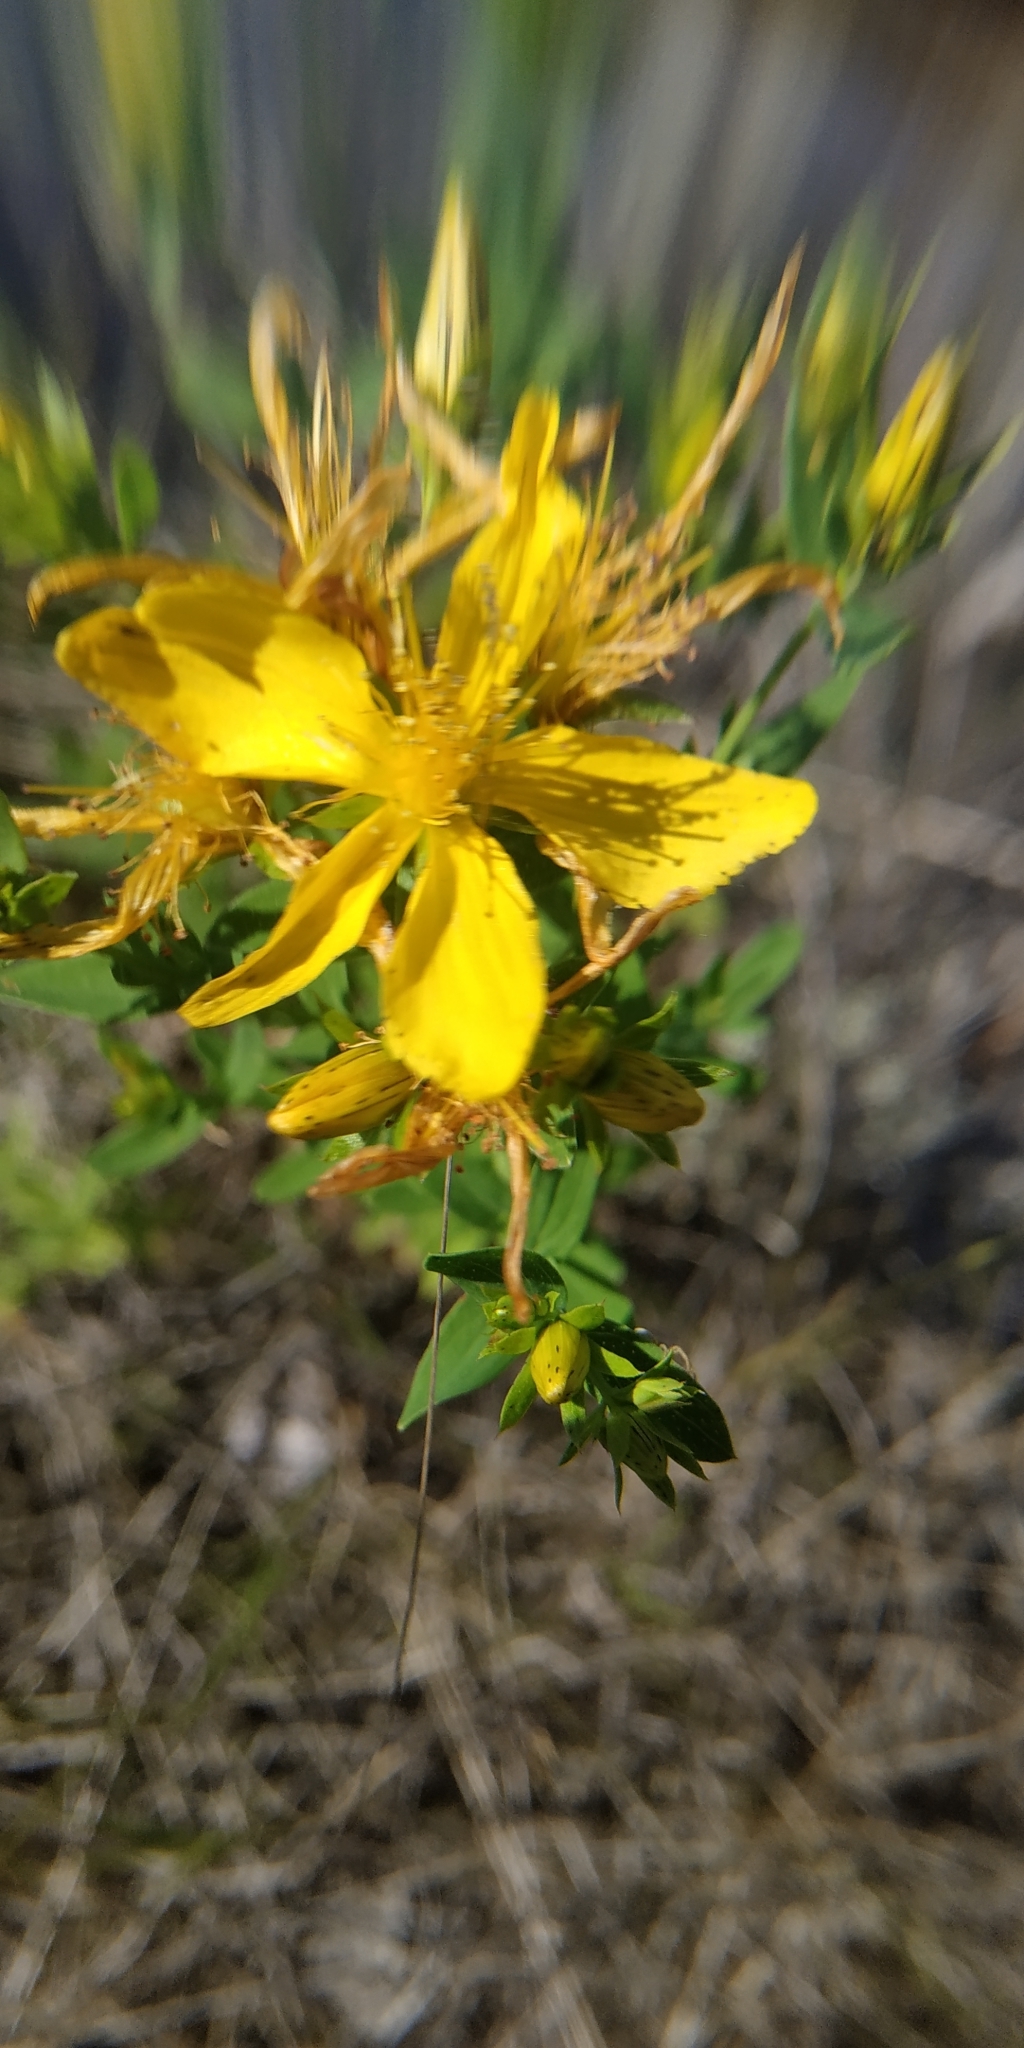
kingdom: Plantae
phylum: Tracheophyta
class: Magnoliopsida
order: Malpighiales
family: Hypericaceae
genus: Hypericum
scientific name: Hypericum perforatum
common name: Common st. johnswort
